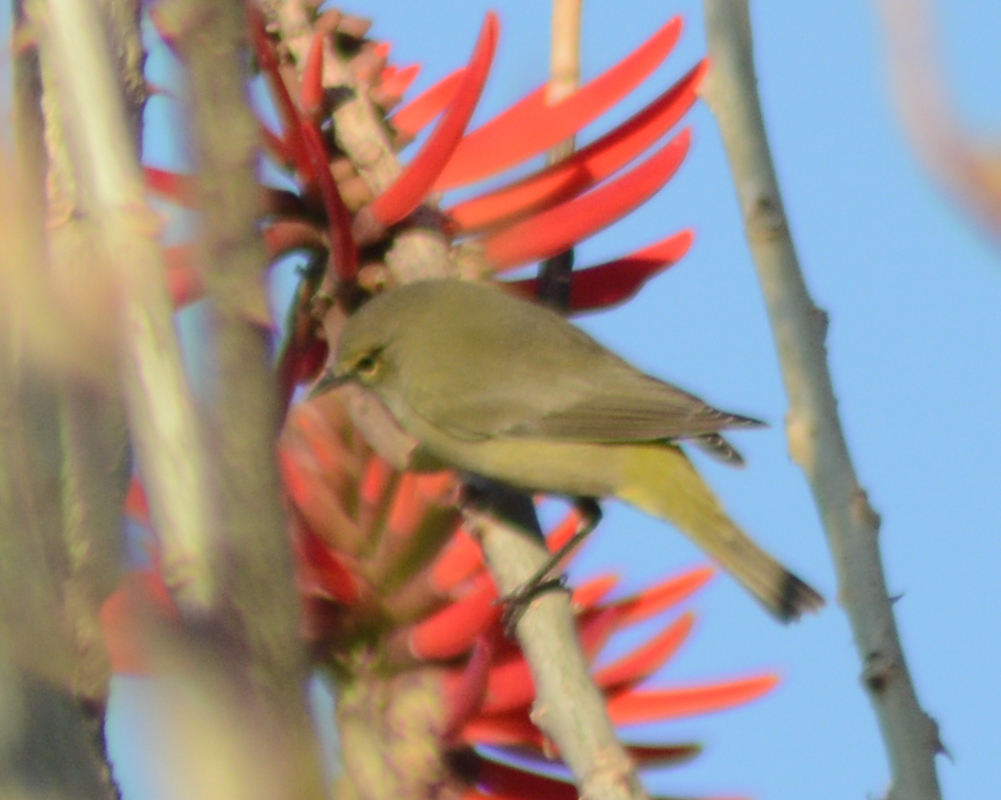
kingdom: Animalia
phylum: Chordata
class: Aves
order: Passeriformes
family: Parulidae
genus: Leiothlypis
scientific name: Leiothlypis celata
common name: Orange-crowned warbler
